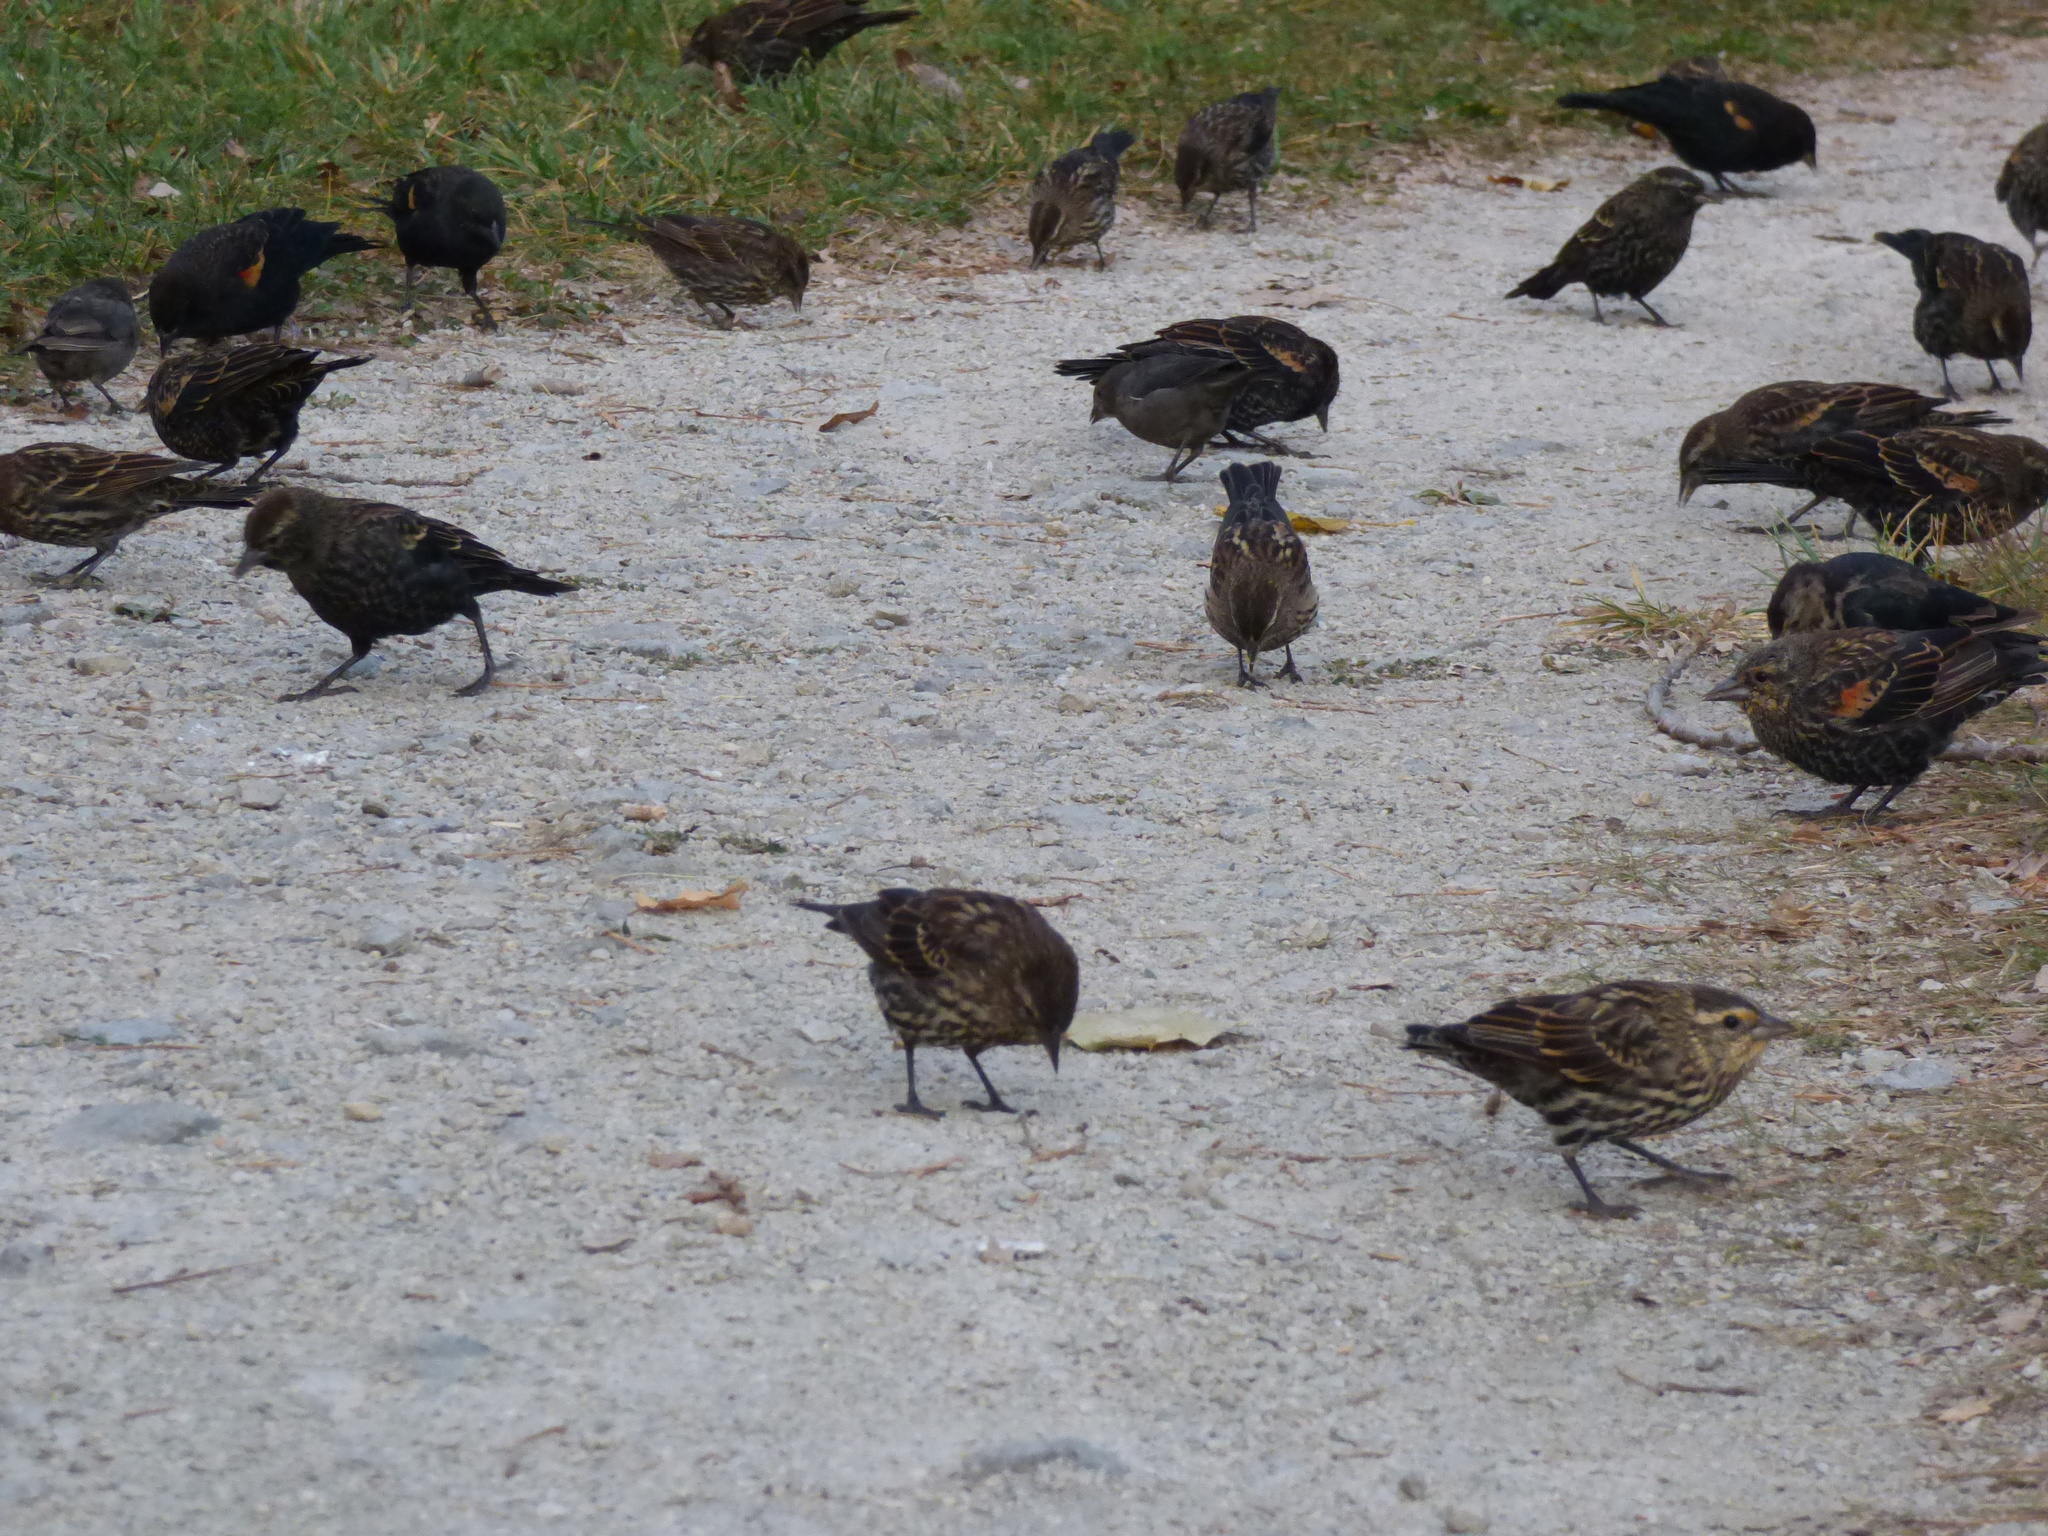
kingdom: Animalia
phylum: Chordata
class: Aves
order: Passeriformes
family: Icteridae
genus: Agelaius
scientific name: Agelaius phoeniceus
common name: Red-winged blackbird
